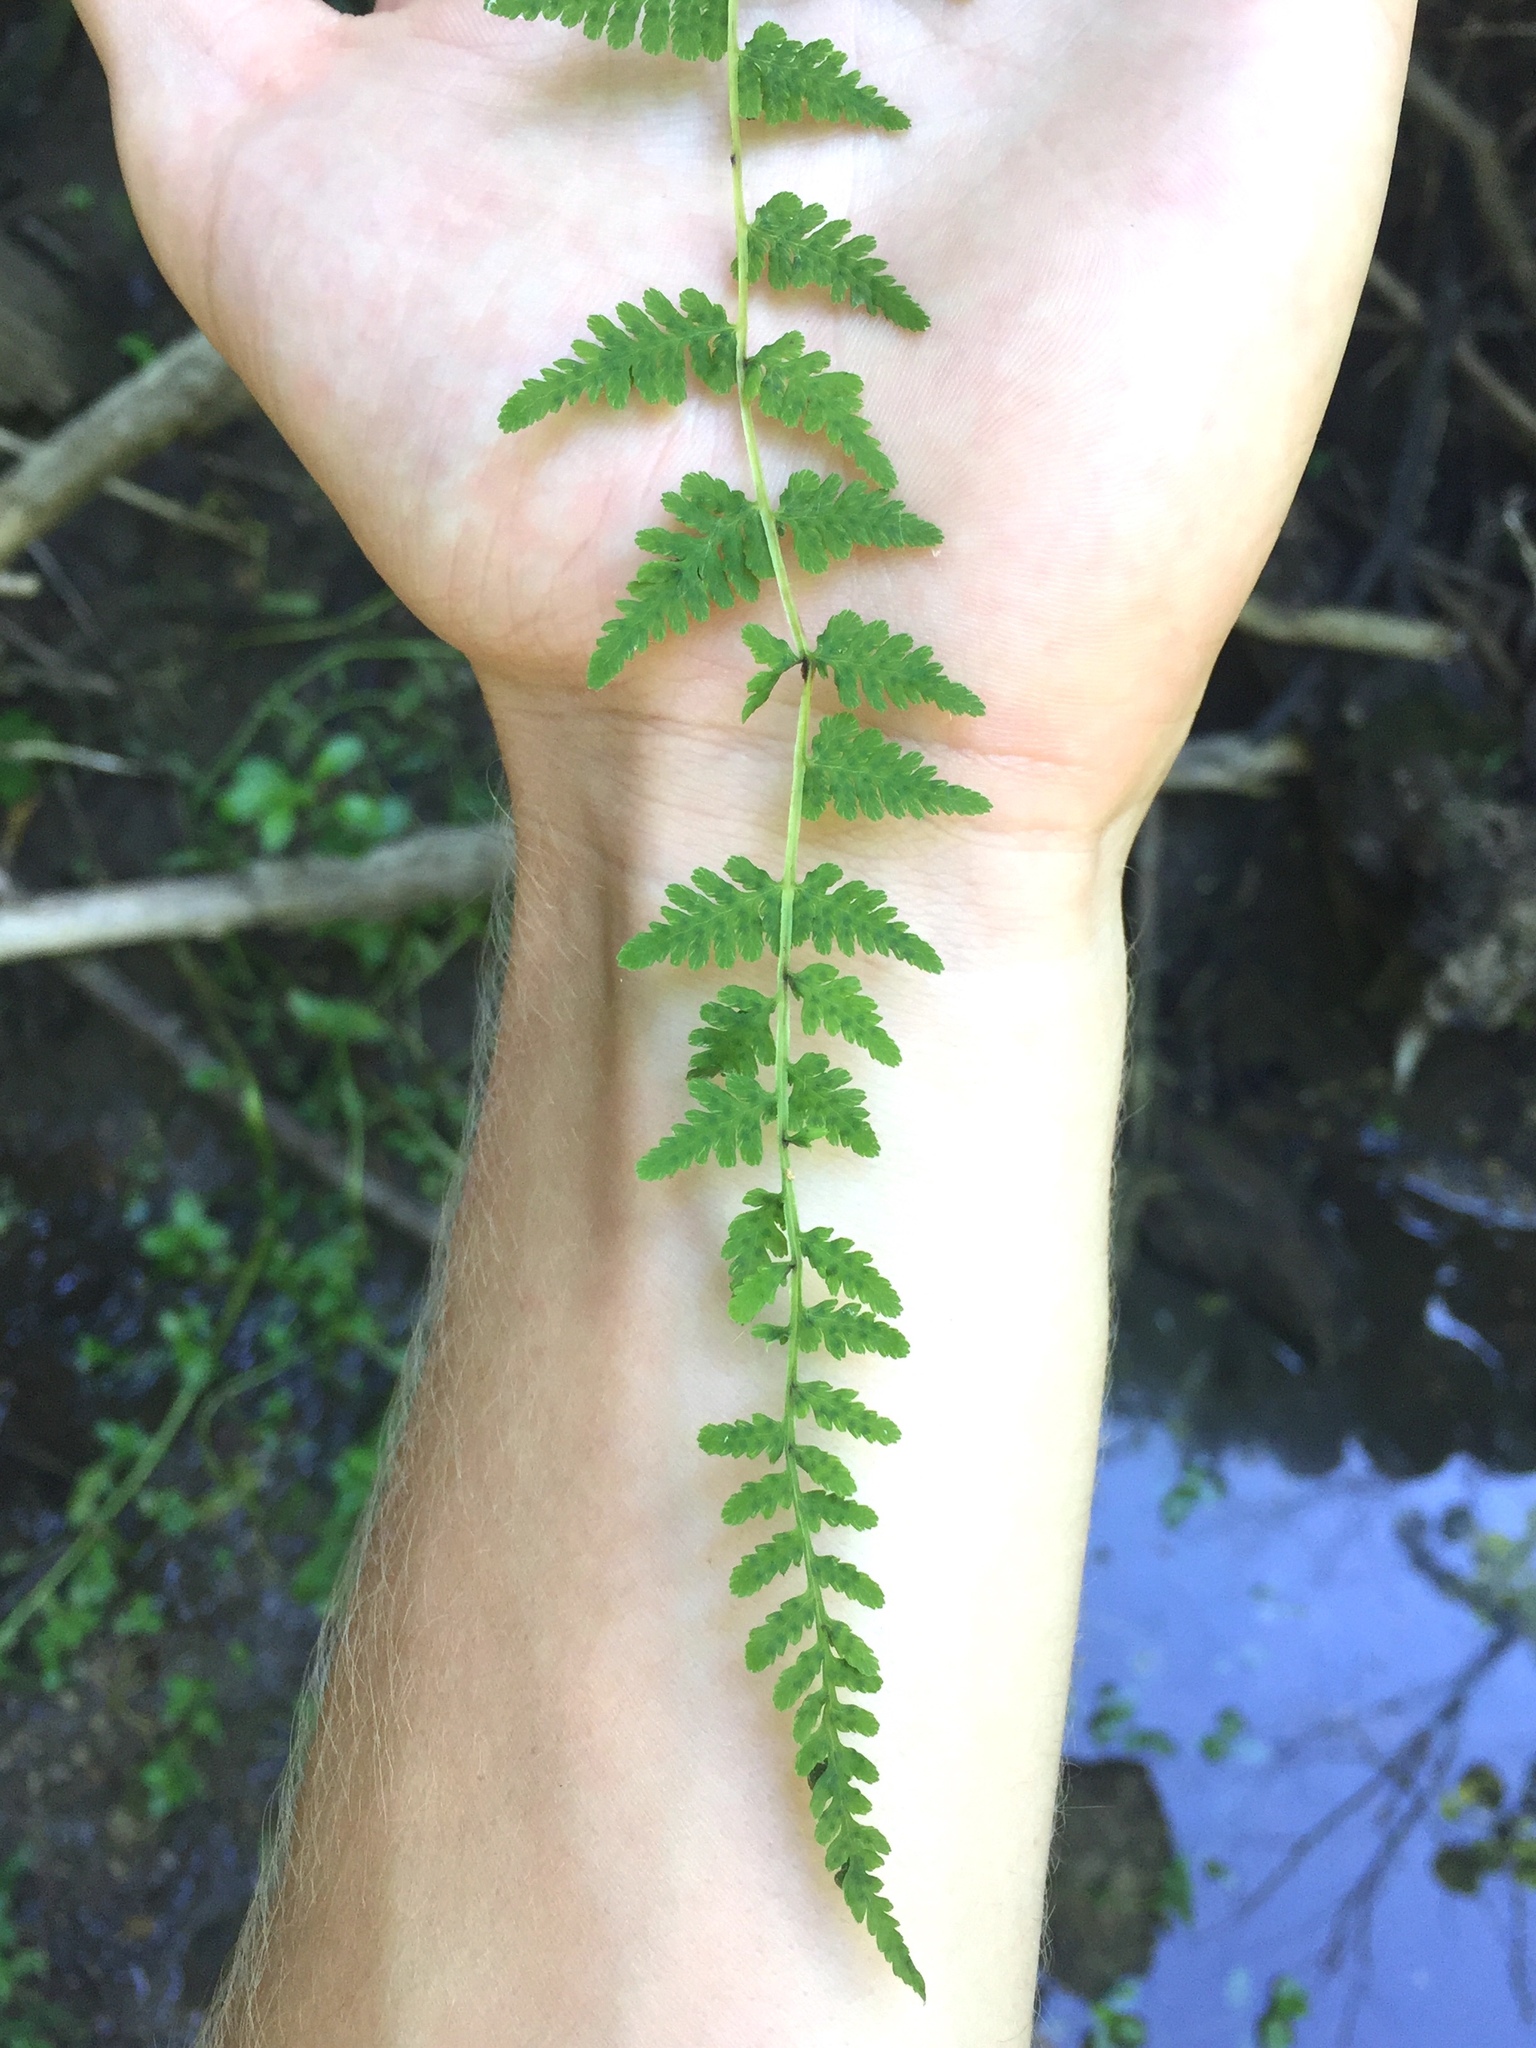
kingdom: Plantae
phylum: Tracheophyta
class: Polypodiopsida
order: Polypodiales
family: Cystopteridaceae
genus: Cystopteris
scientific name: Cystopteris bulbifera
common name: Bulblet bladder fern
